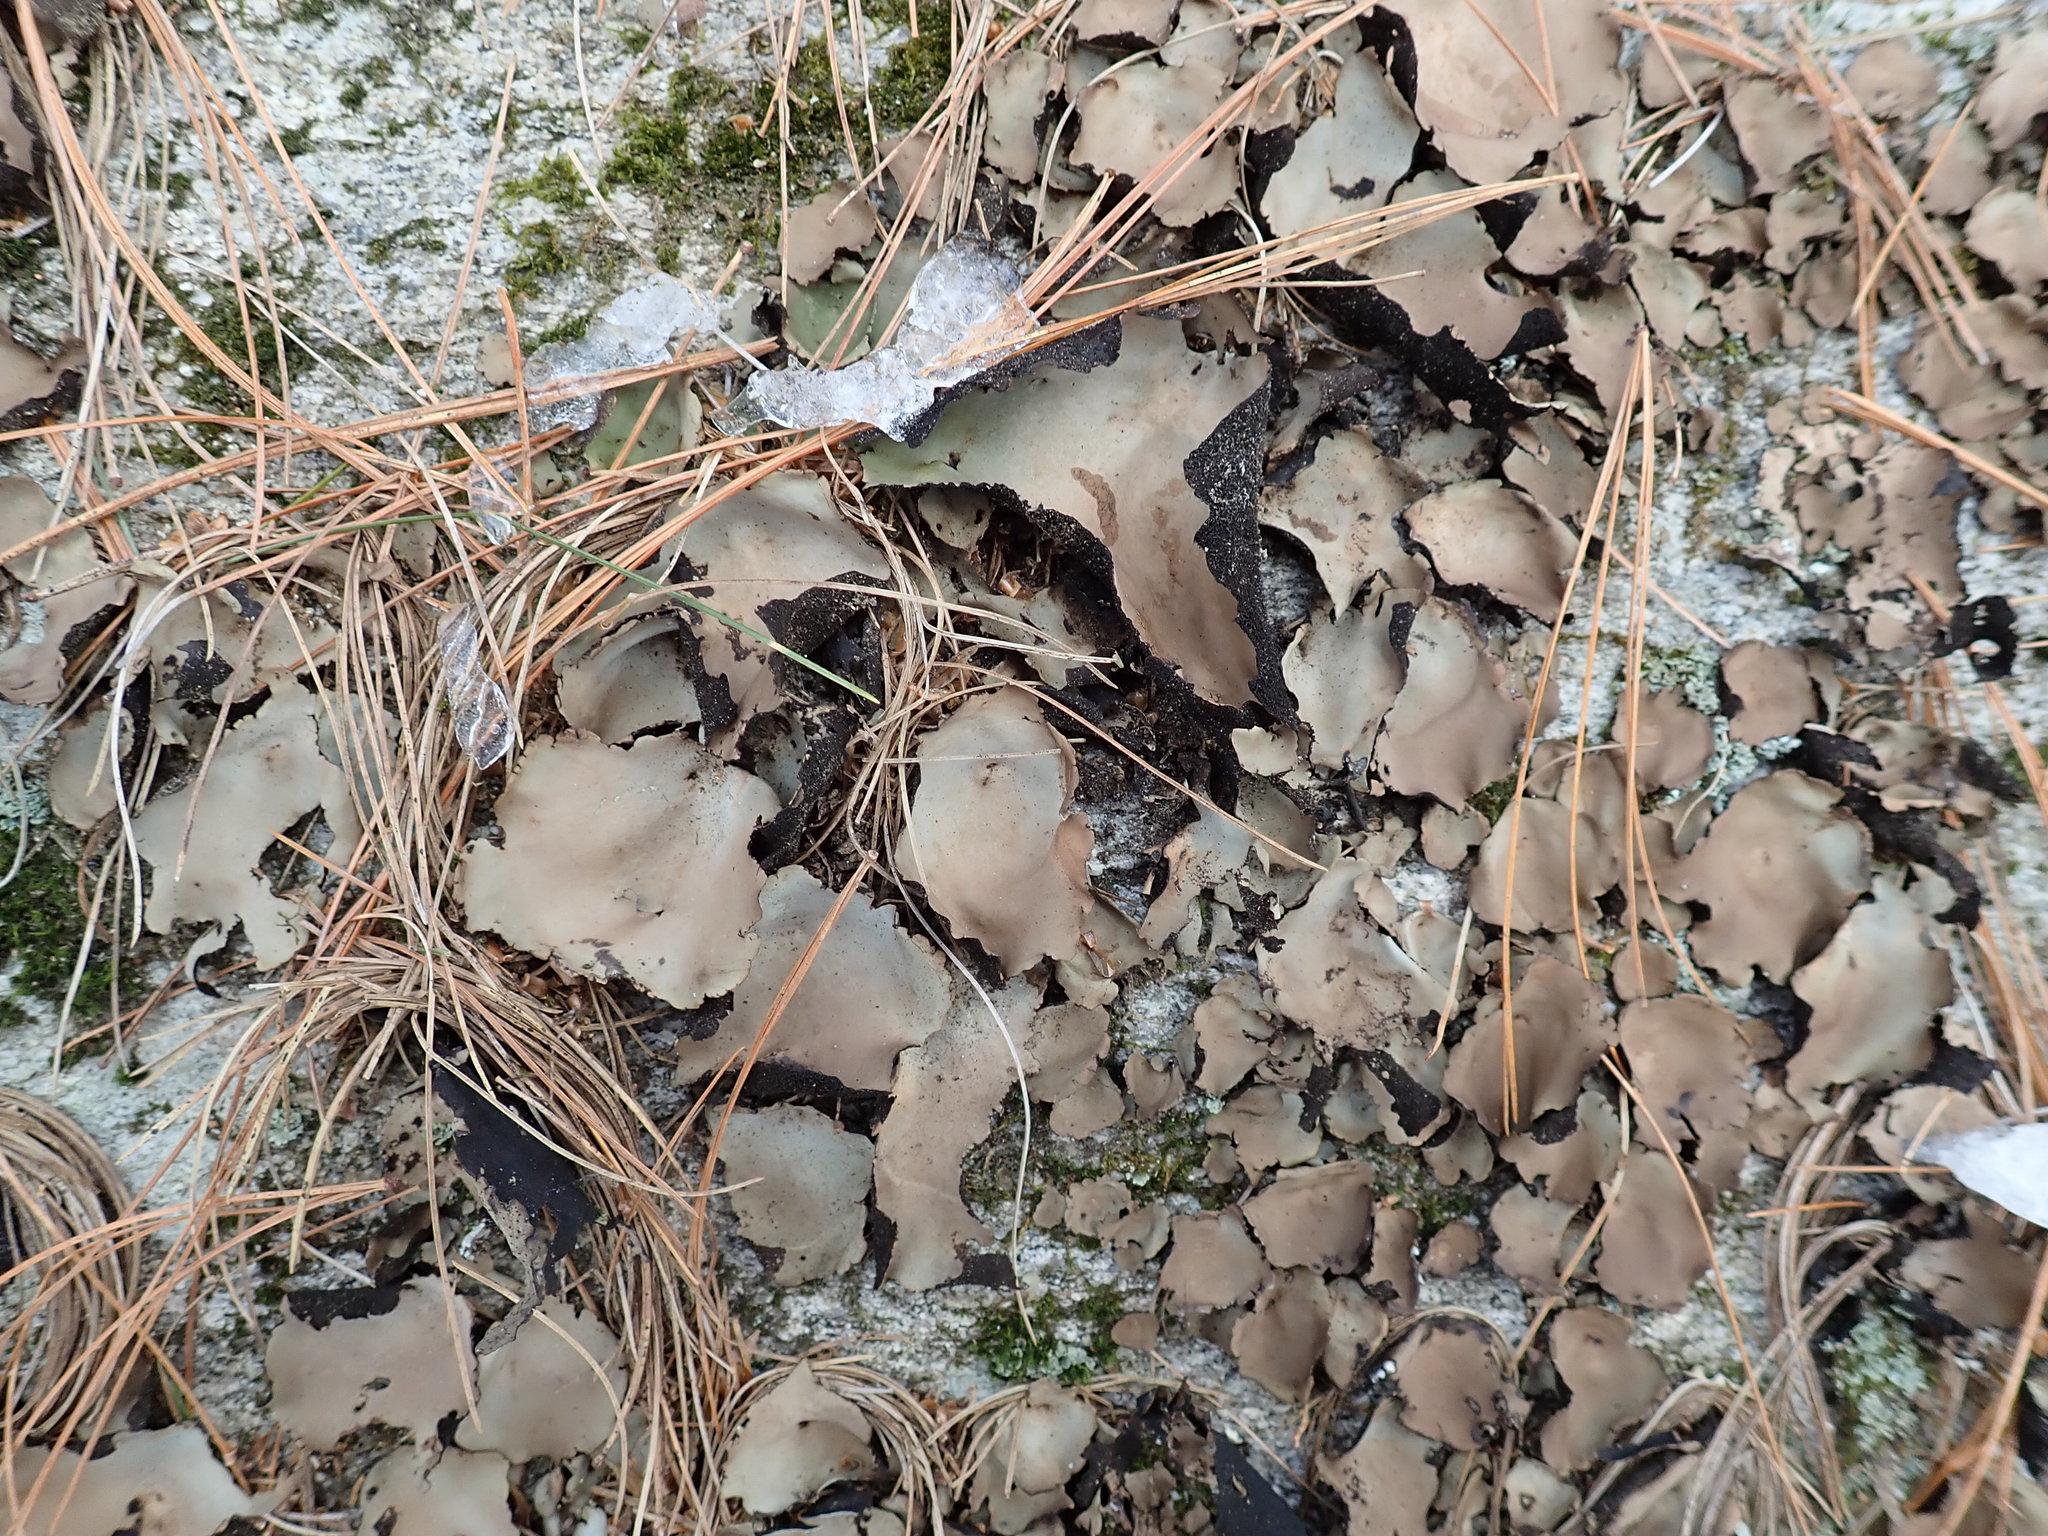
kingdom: Fungi
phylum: Ascomycota
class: Lecanoromycetes
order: Umbilicariales
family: Umbilicariaceae
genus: Umbilicaria
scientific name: Umbilicaria mammulata
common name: Smooth rock tripe
